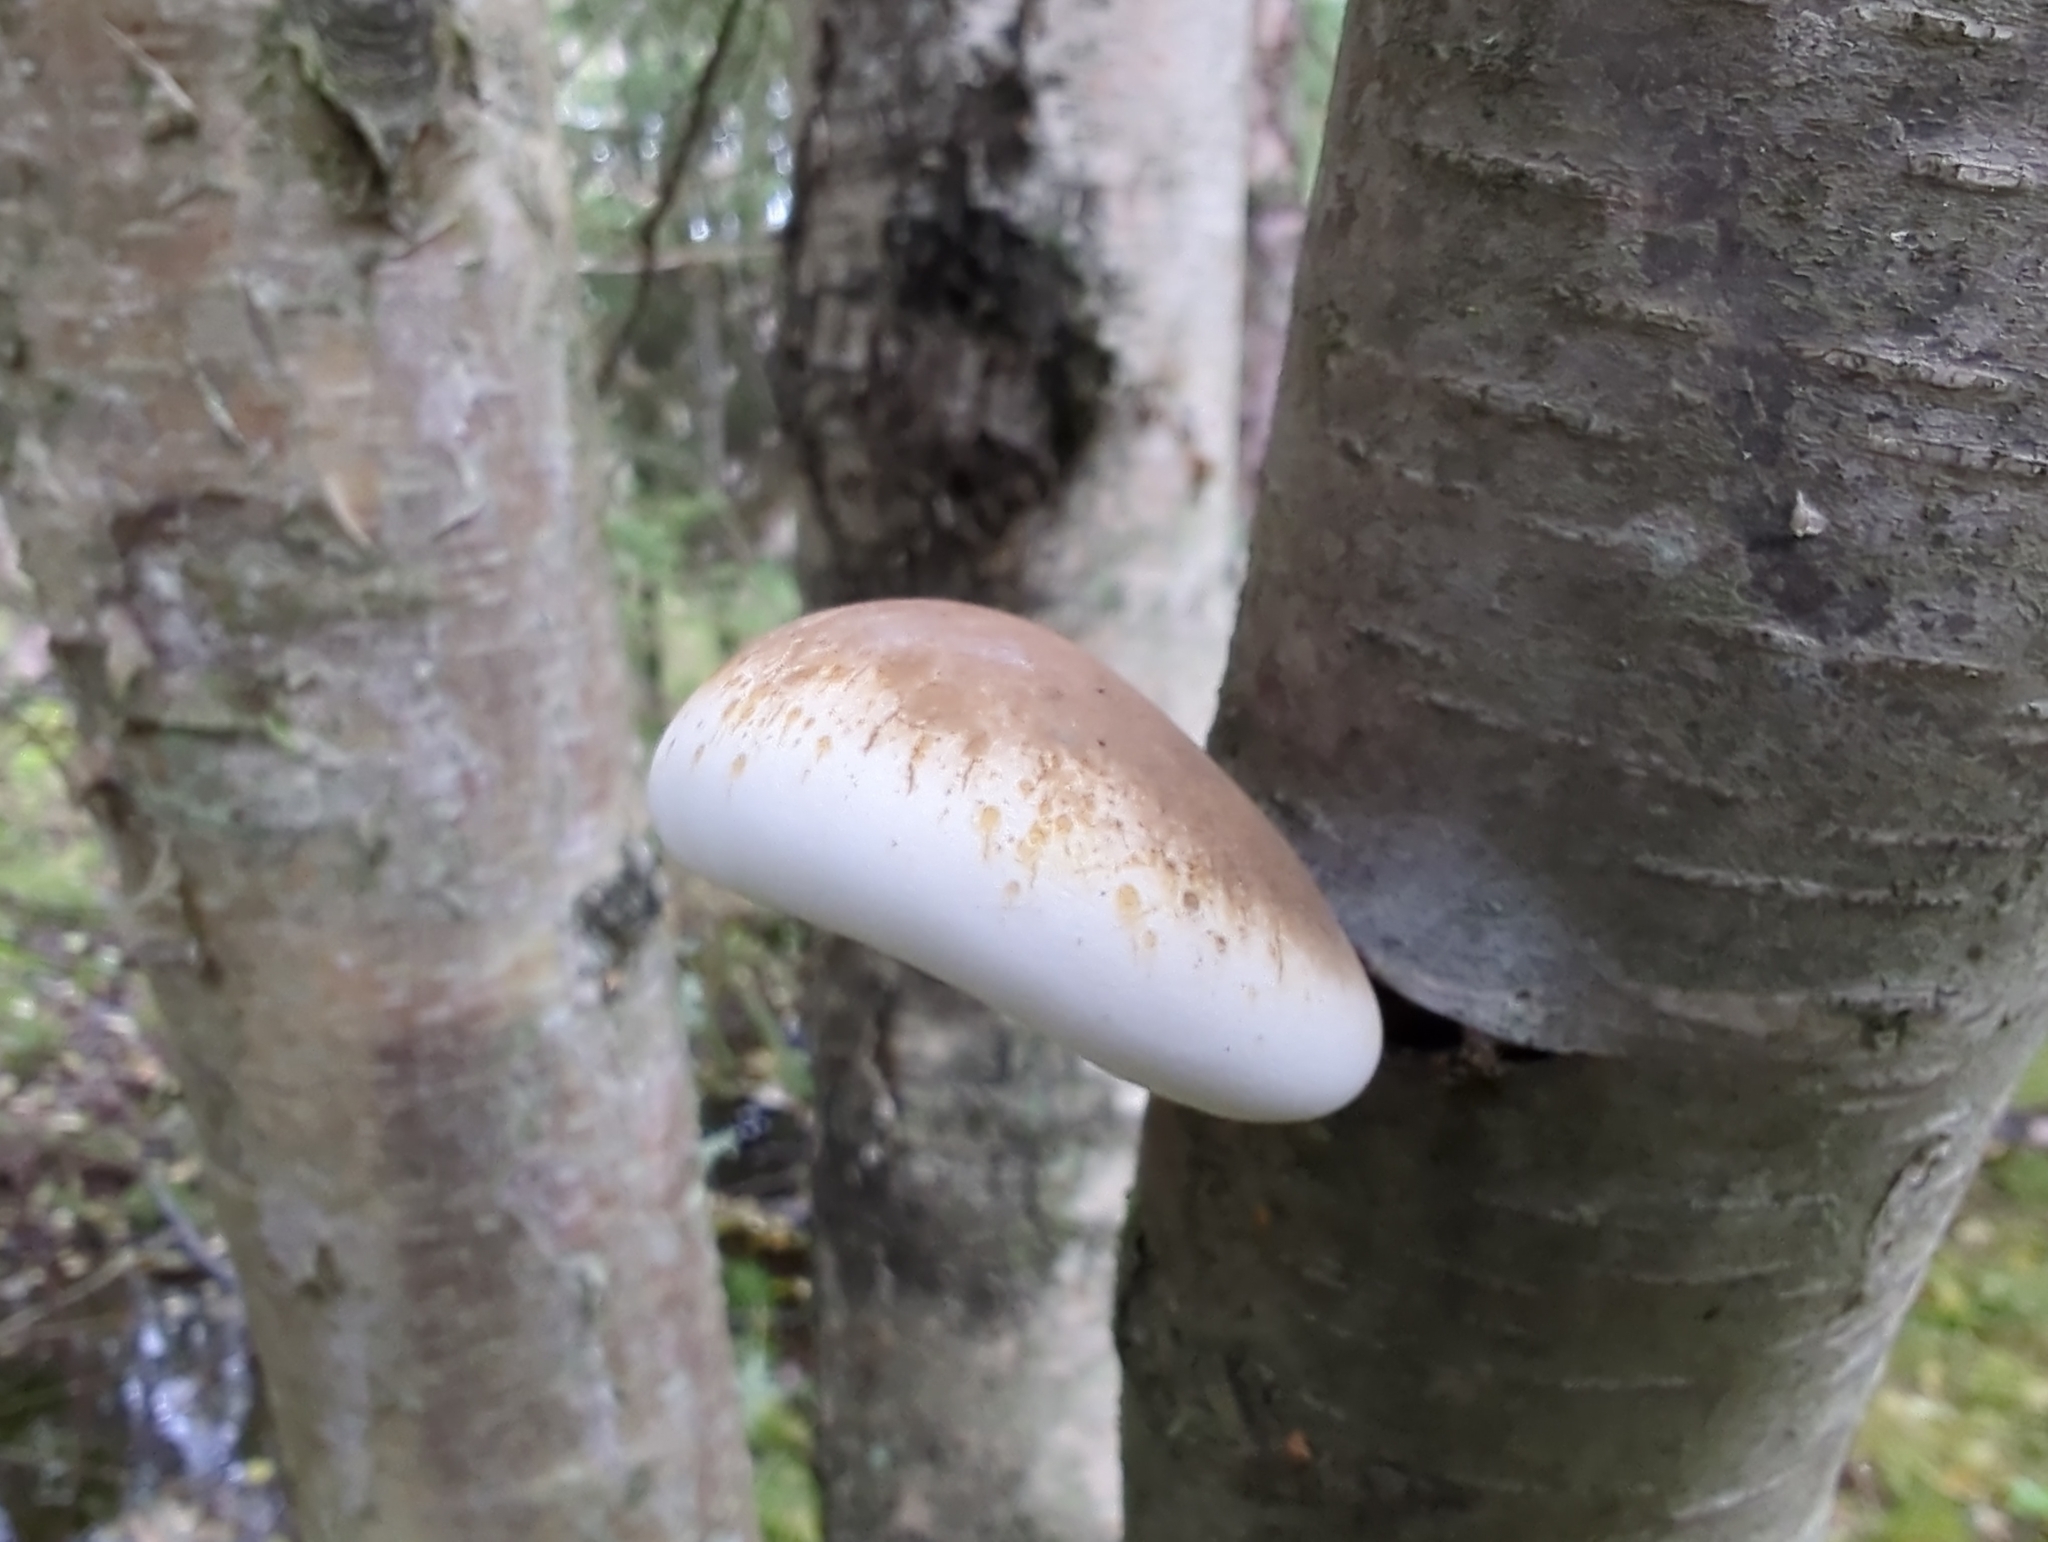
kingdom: Fungi
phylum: Basidiomycota
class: Agaricomycetes
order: Polyporales
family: Fomitopsidaceae
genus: Fomitopsis
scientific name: Fomitopsis betulina
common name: Birch polypore
